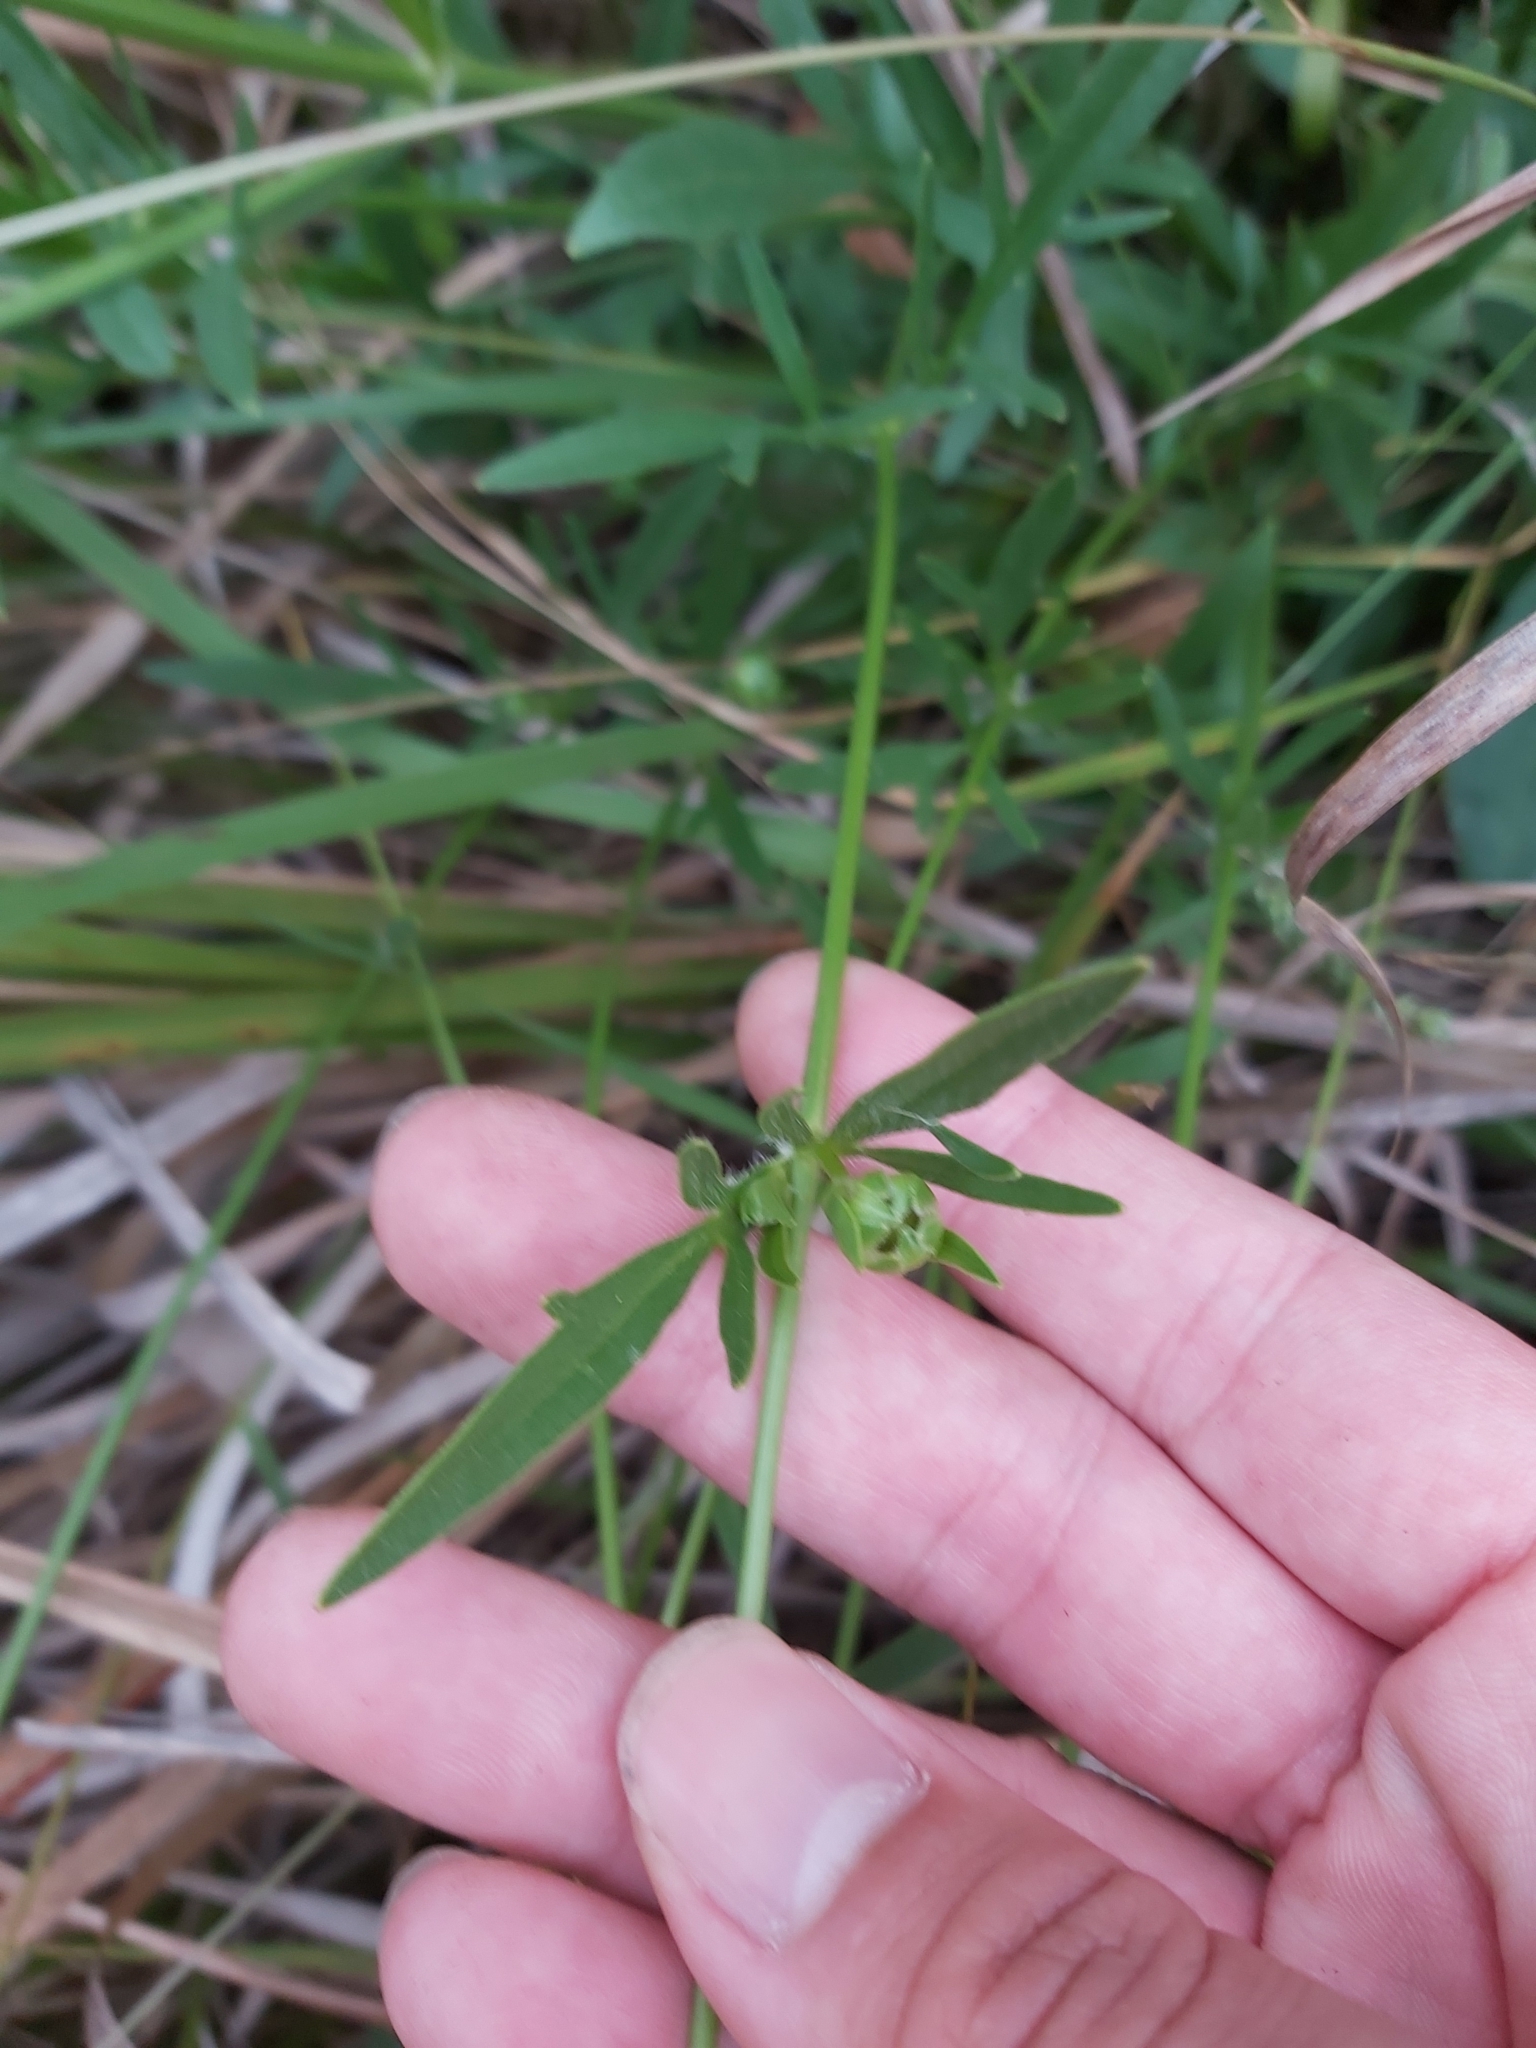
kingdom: Plantae
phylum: Tracheophyta
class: Magnoliopsida
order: Asterales
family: Asteraceae
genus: Coreopsis
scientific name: Coreopsis lanceolata
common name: Garden coreopsis
